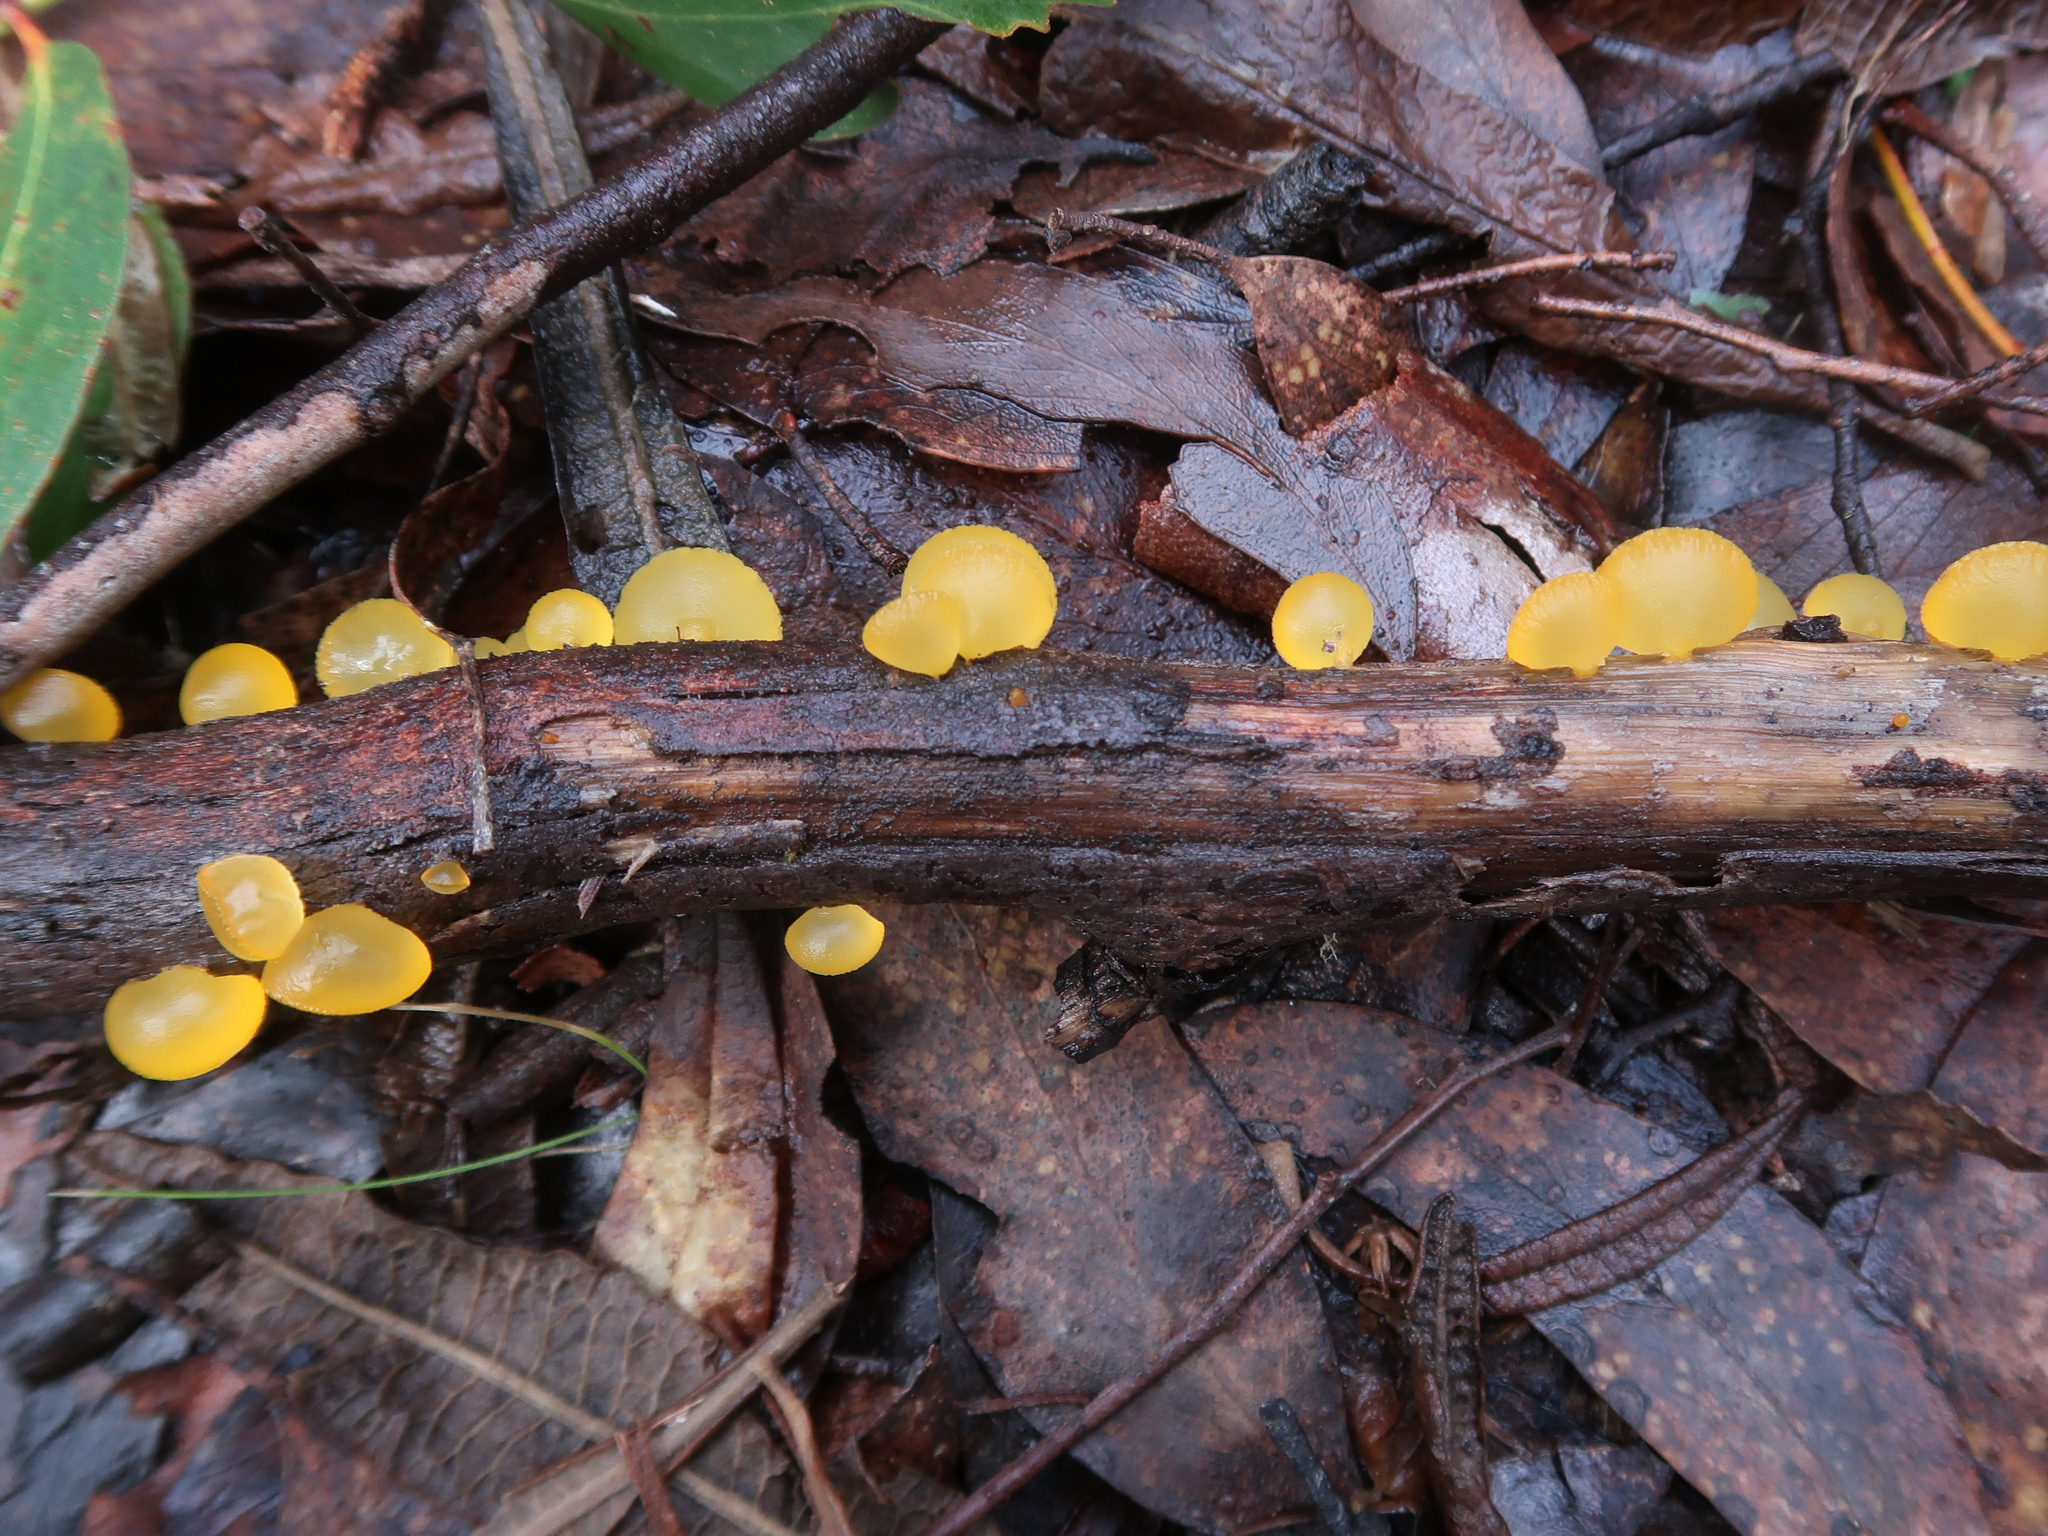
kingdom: Fungi
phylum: Basidiomycota
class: Dacrymycetes
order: Dacrymycetales
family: Dacrymycetaceae
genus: Heterotextus
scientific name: Heterotextus peziziformis
